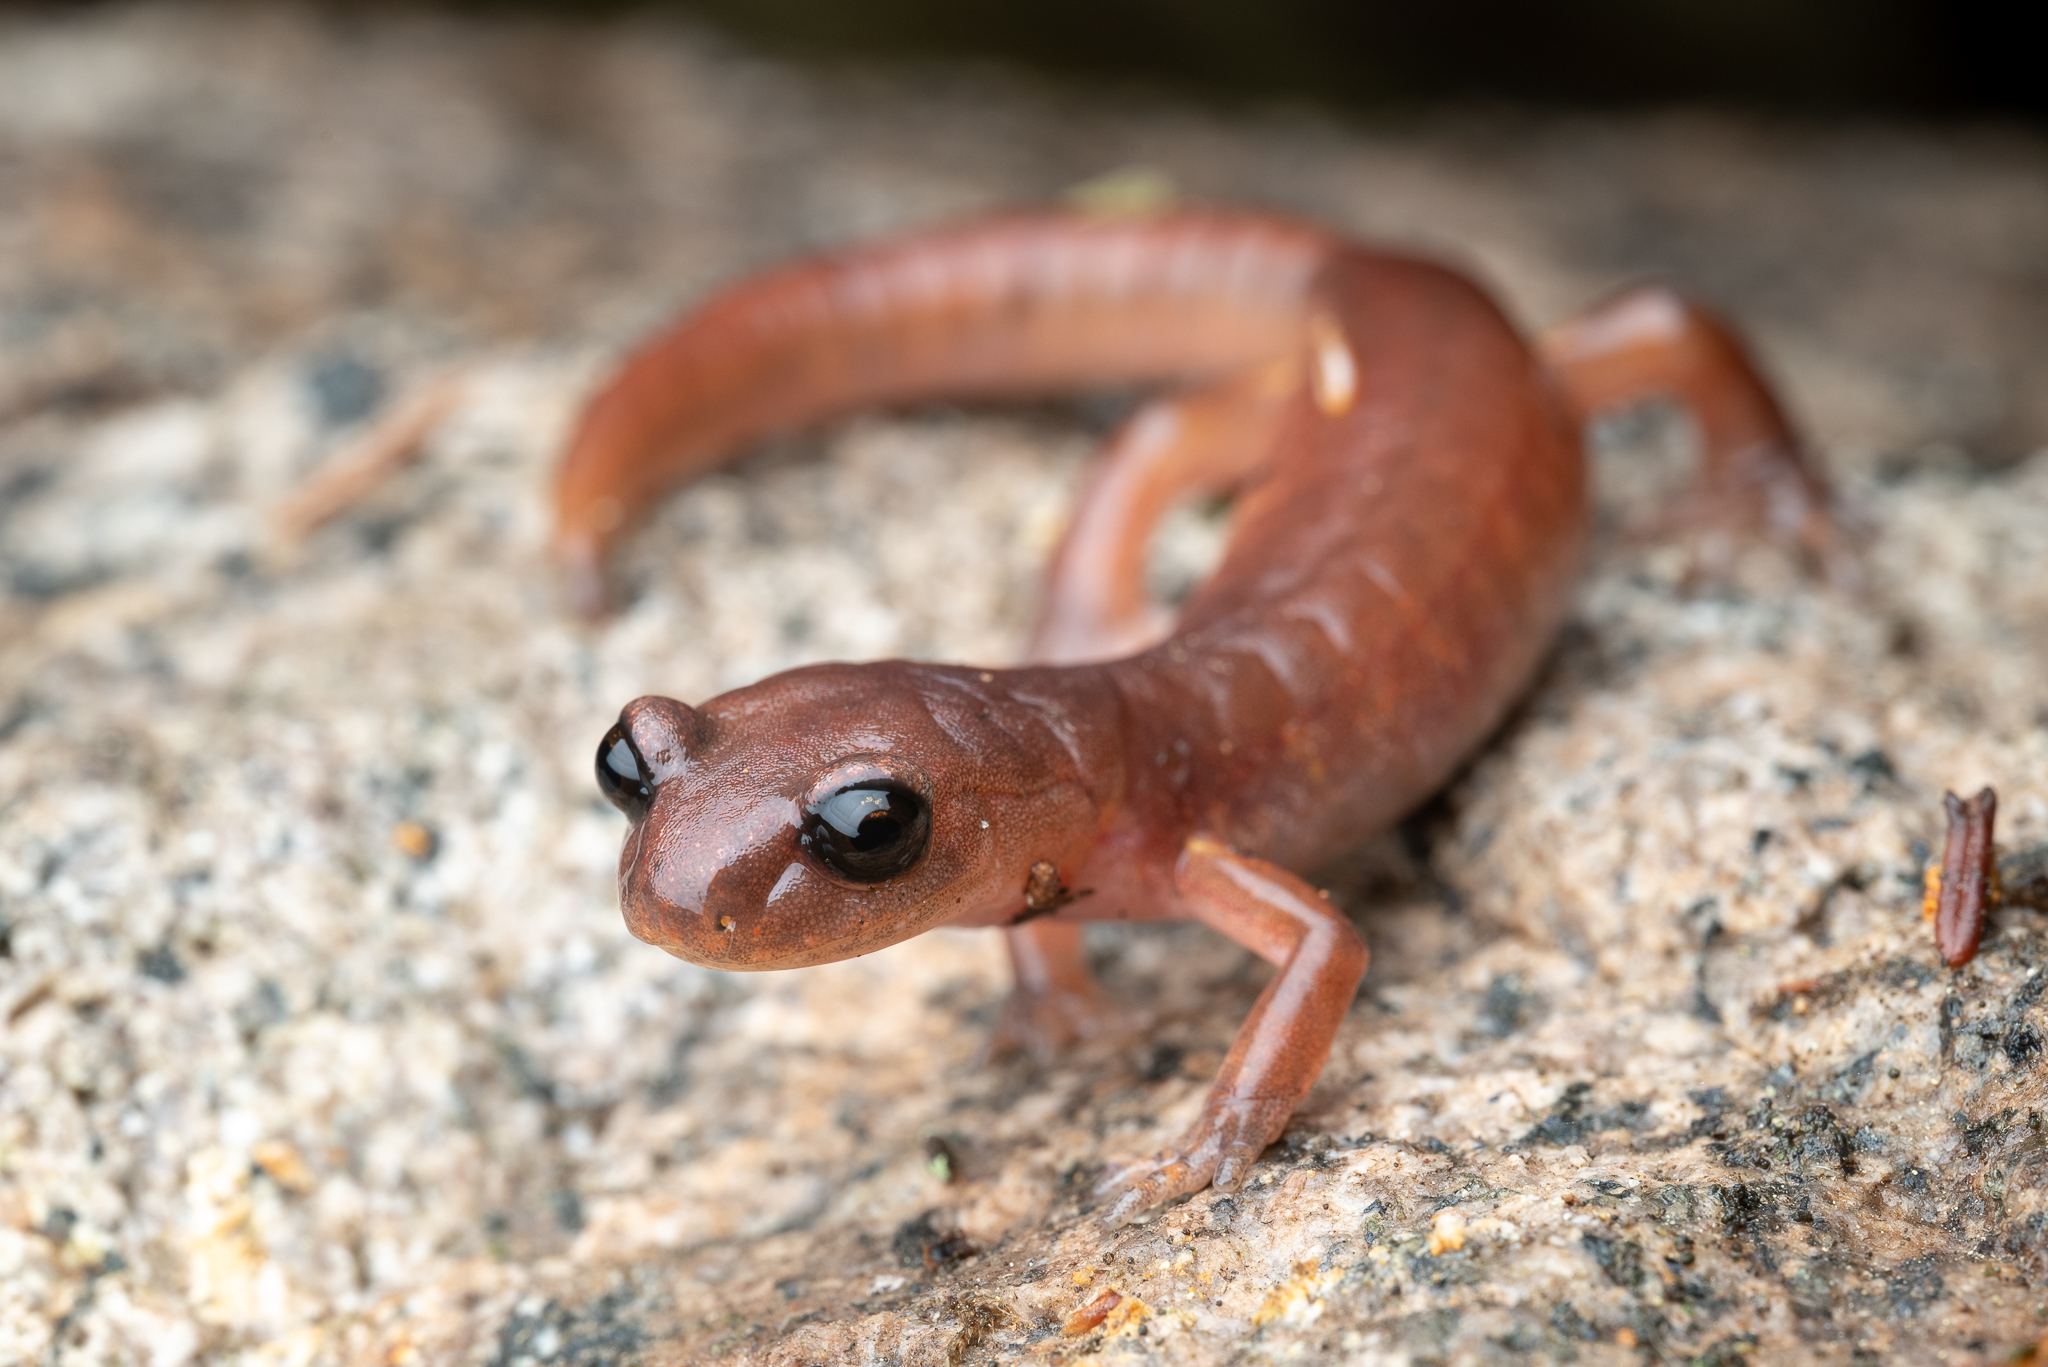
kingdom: Animalia
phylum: Chordata
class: Amphibia
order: Caudata
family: Plethodontidae
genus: Ensatina
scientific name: Ensatina eschscholtzii
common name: Ensatina
